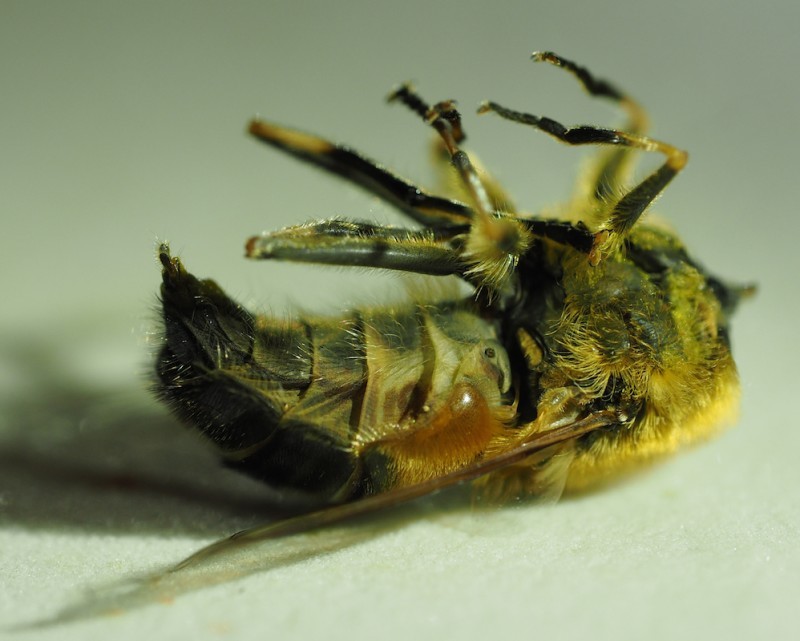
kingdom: Animalia
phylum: Arthropoda
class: Insecta
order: Diptera
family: Syrphidae
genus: Eristalis
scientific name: Eristalis pertinax
